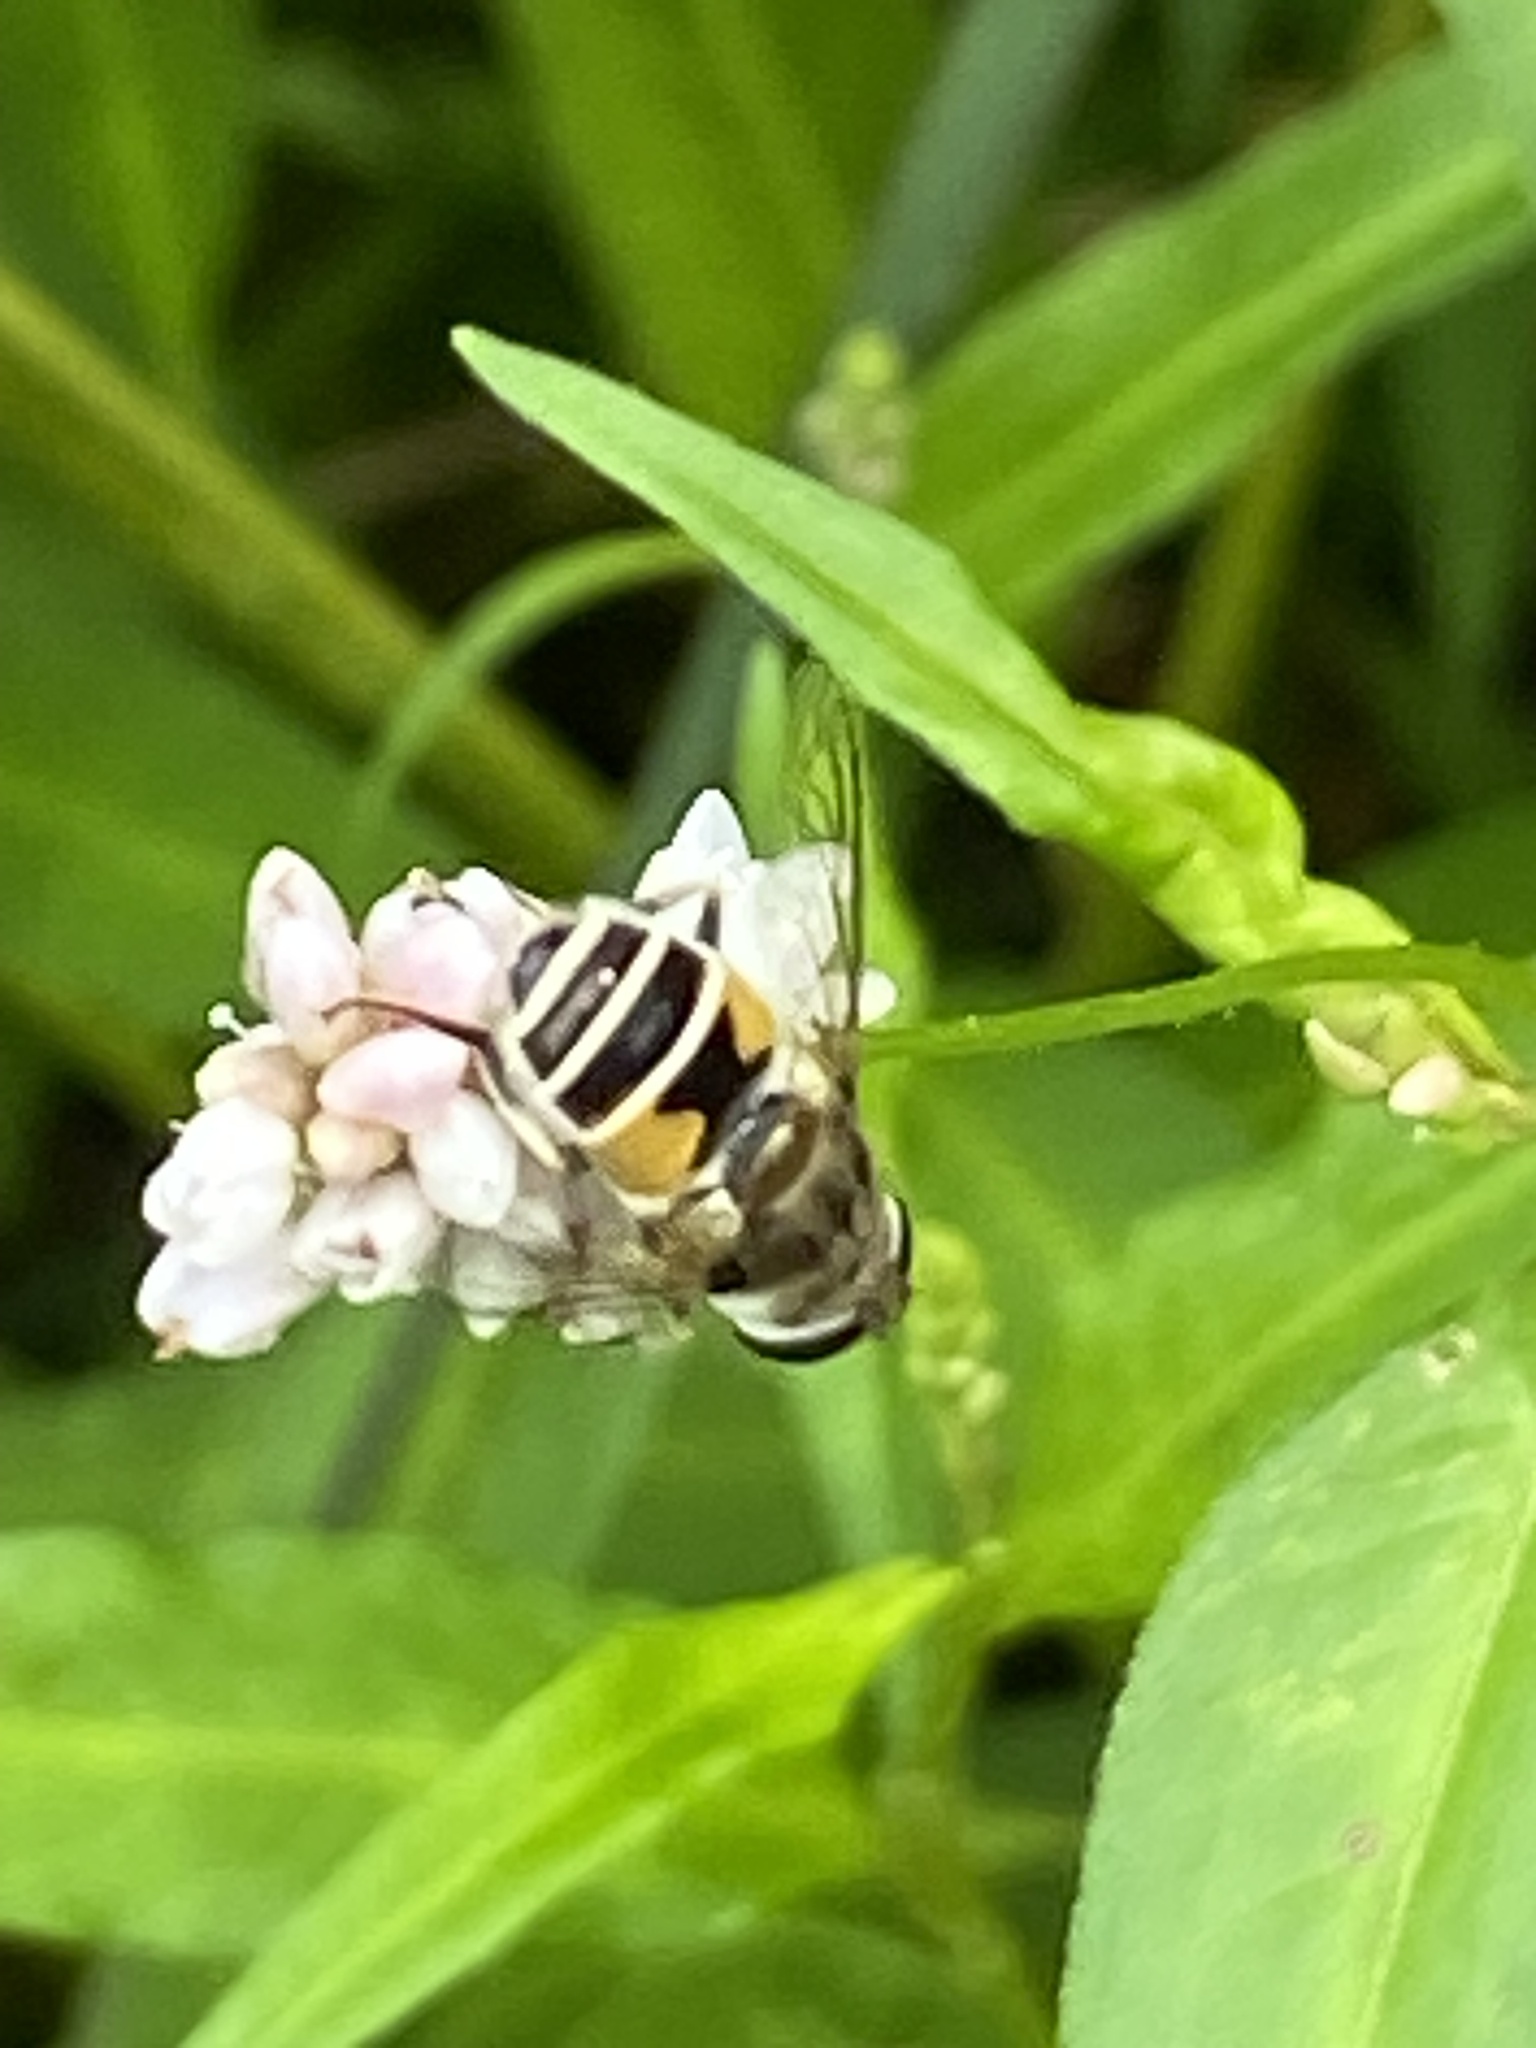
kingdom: Animalia
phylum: Arthropoda
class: Insecta
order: Diptera
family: Syrphidae
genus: Eristalis
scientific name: Eristalis arbustorum
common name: Hover fly
